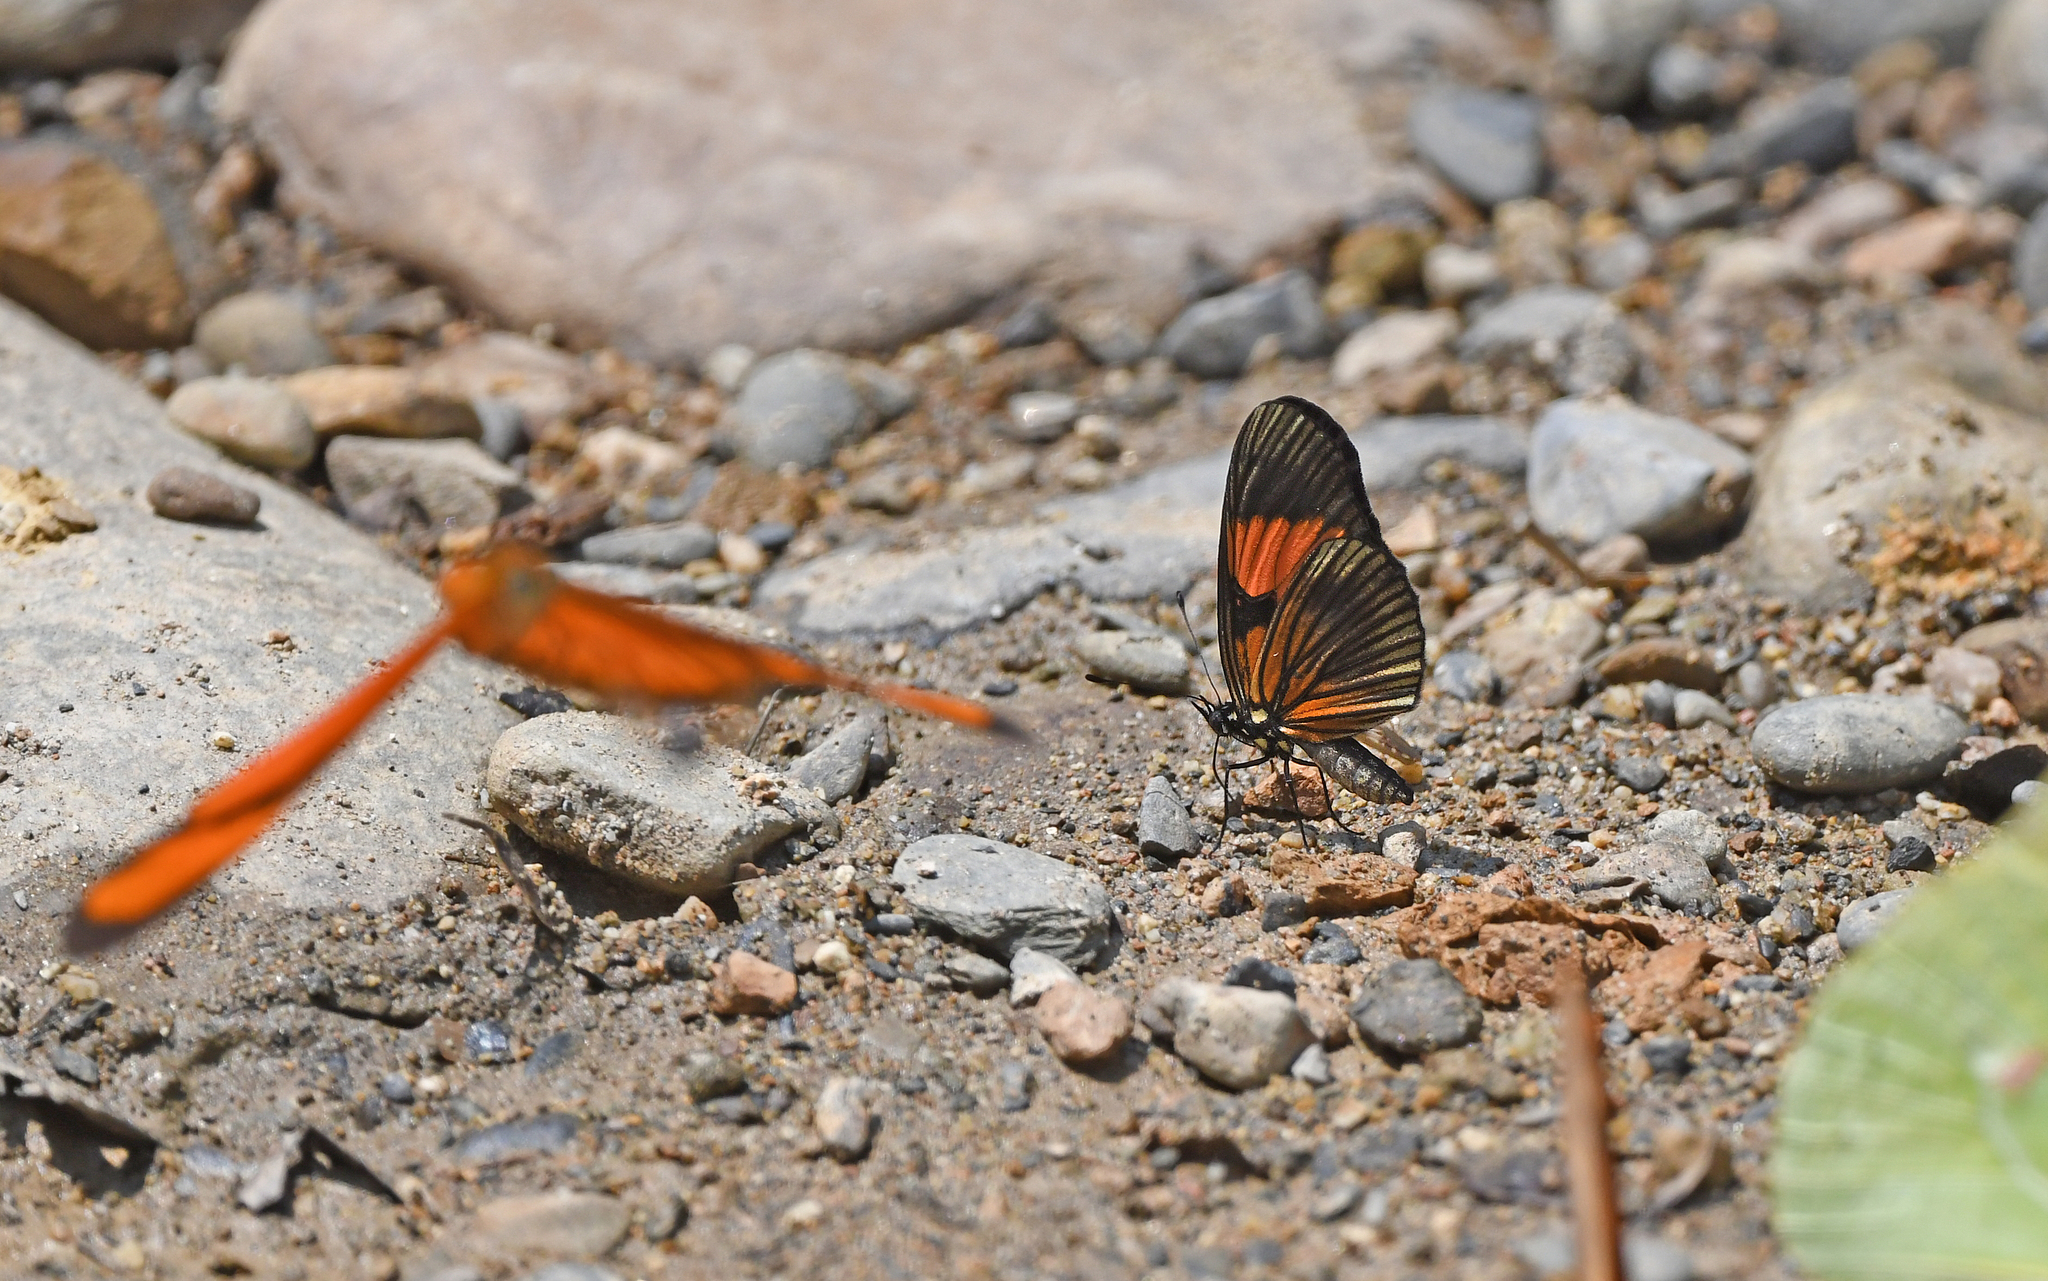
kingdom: Animalia
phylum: Arthropoda
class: Insecta
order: Lepidoptera
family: Nymphalidae
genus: Castilia
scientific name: Castilia perilla
